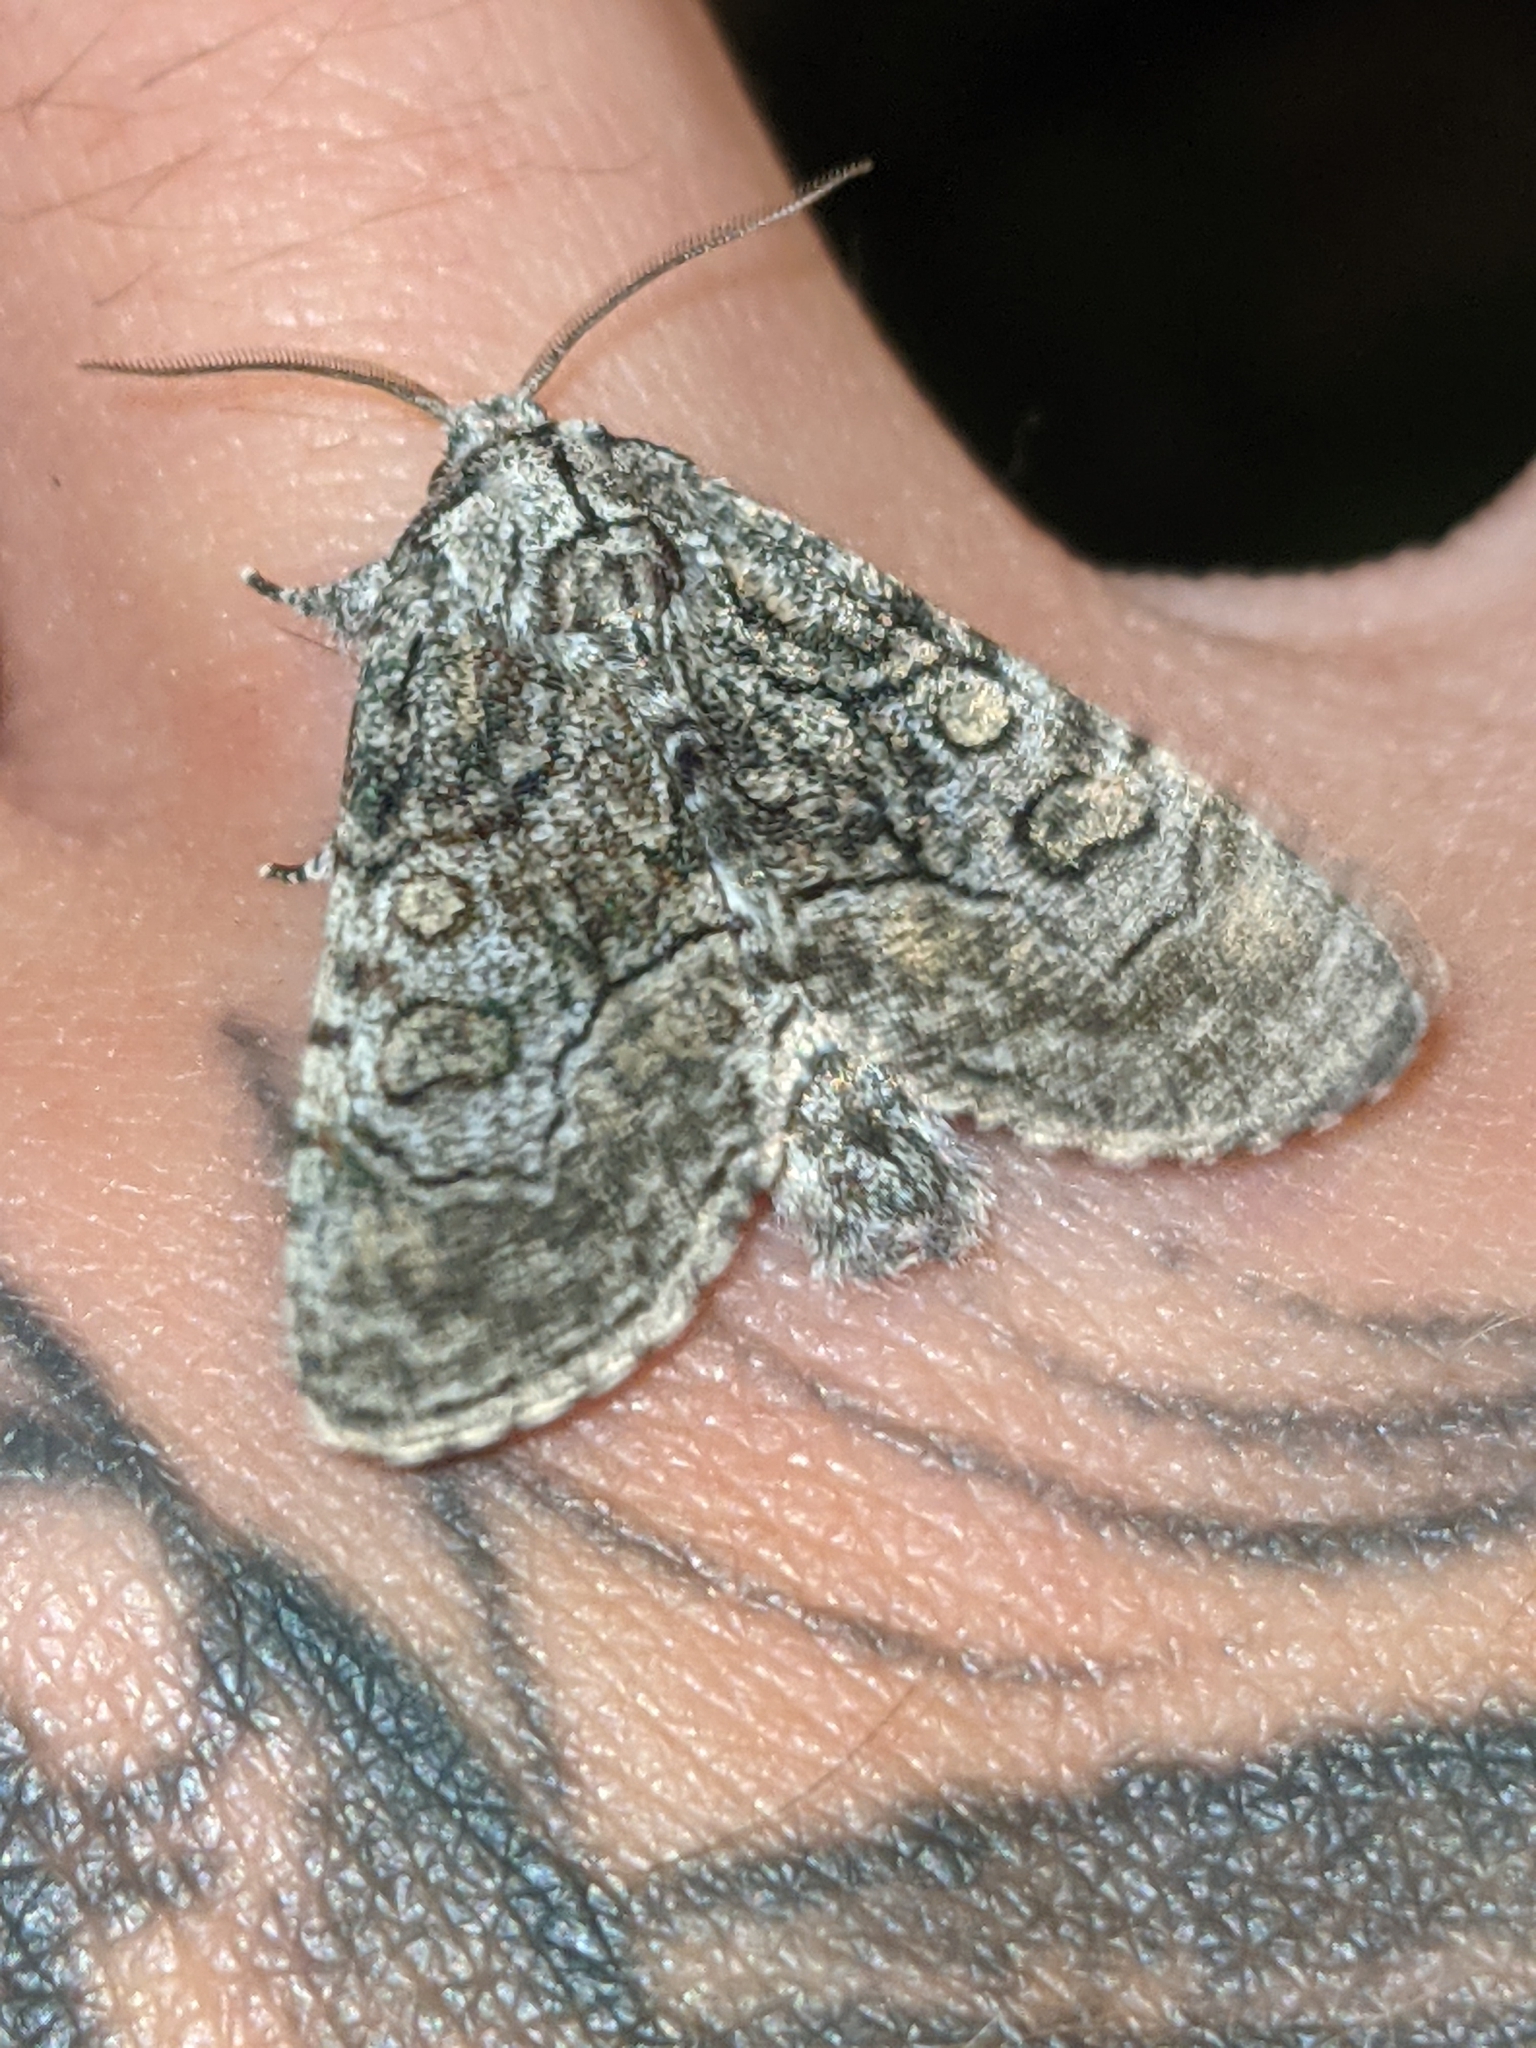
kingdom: Animalia
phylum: Arthropoda
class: Insecta
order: Lepidoptera
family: Noctuidae
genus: Raphia
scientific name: Raphia frater
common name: Brother
